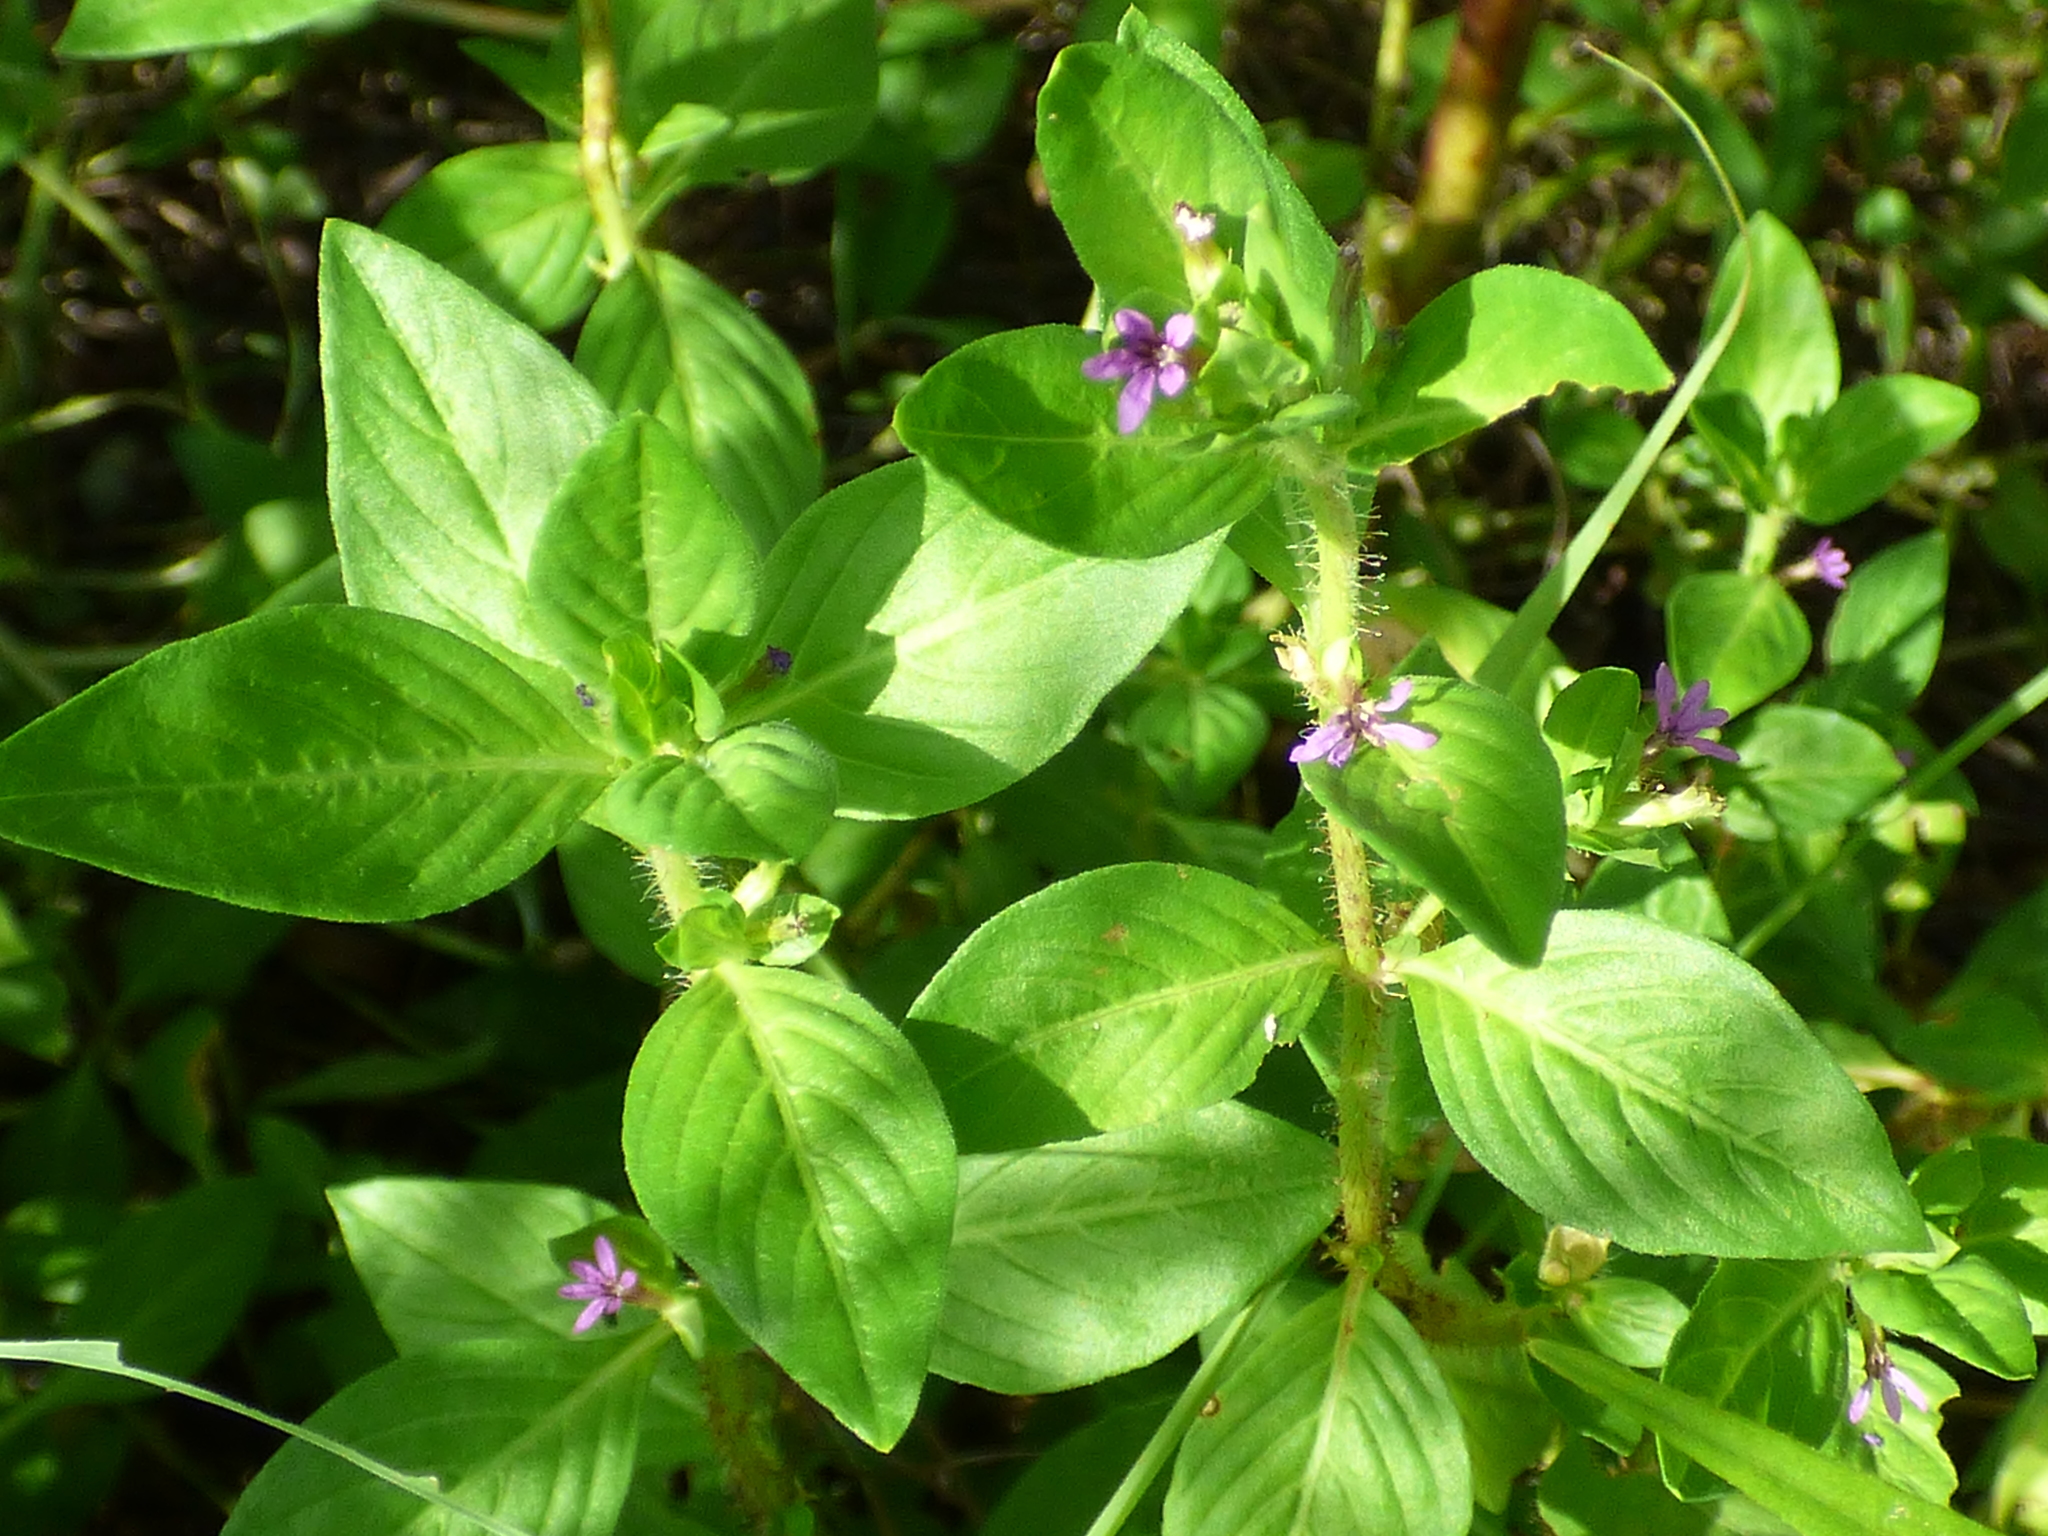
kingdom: Plantae
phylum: Tracheophyta
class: Magnoliopsida
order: Myrtales
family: Lythraceae
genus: Cuphea
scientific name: Cuphea carthagenensis
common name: Colombian waxweed
